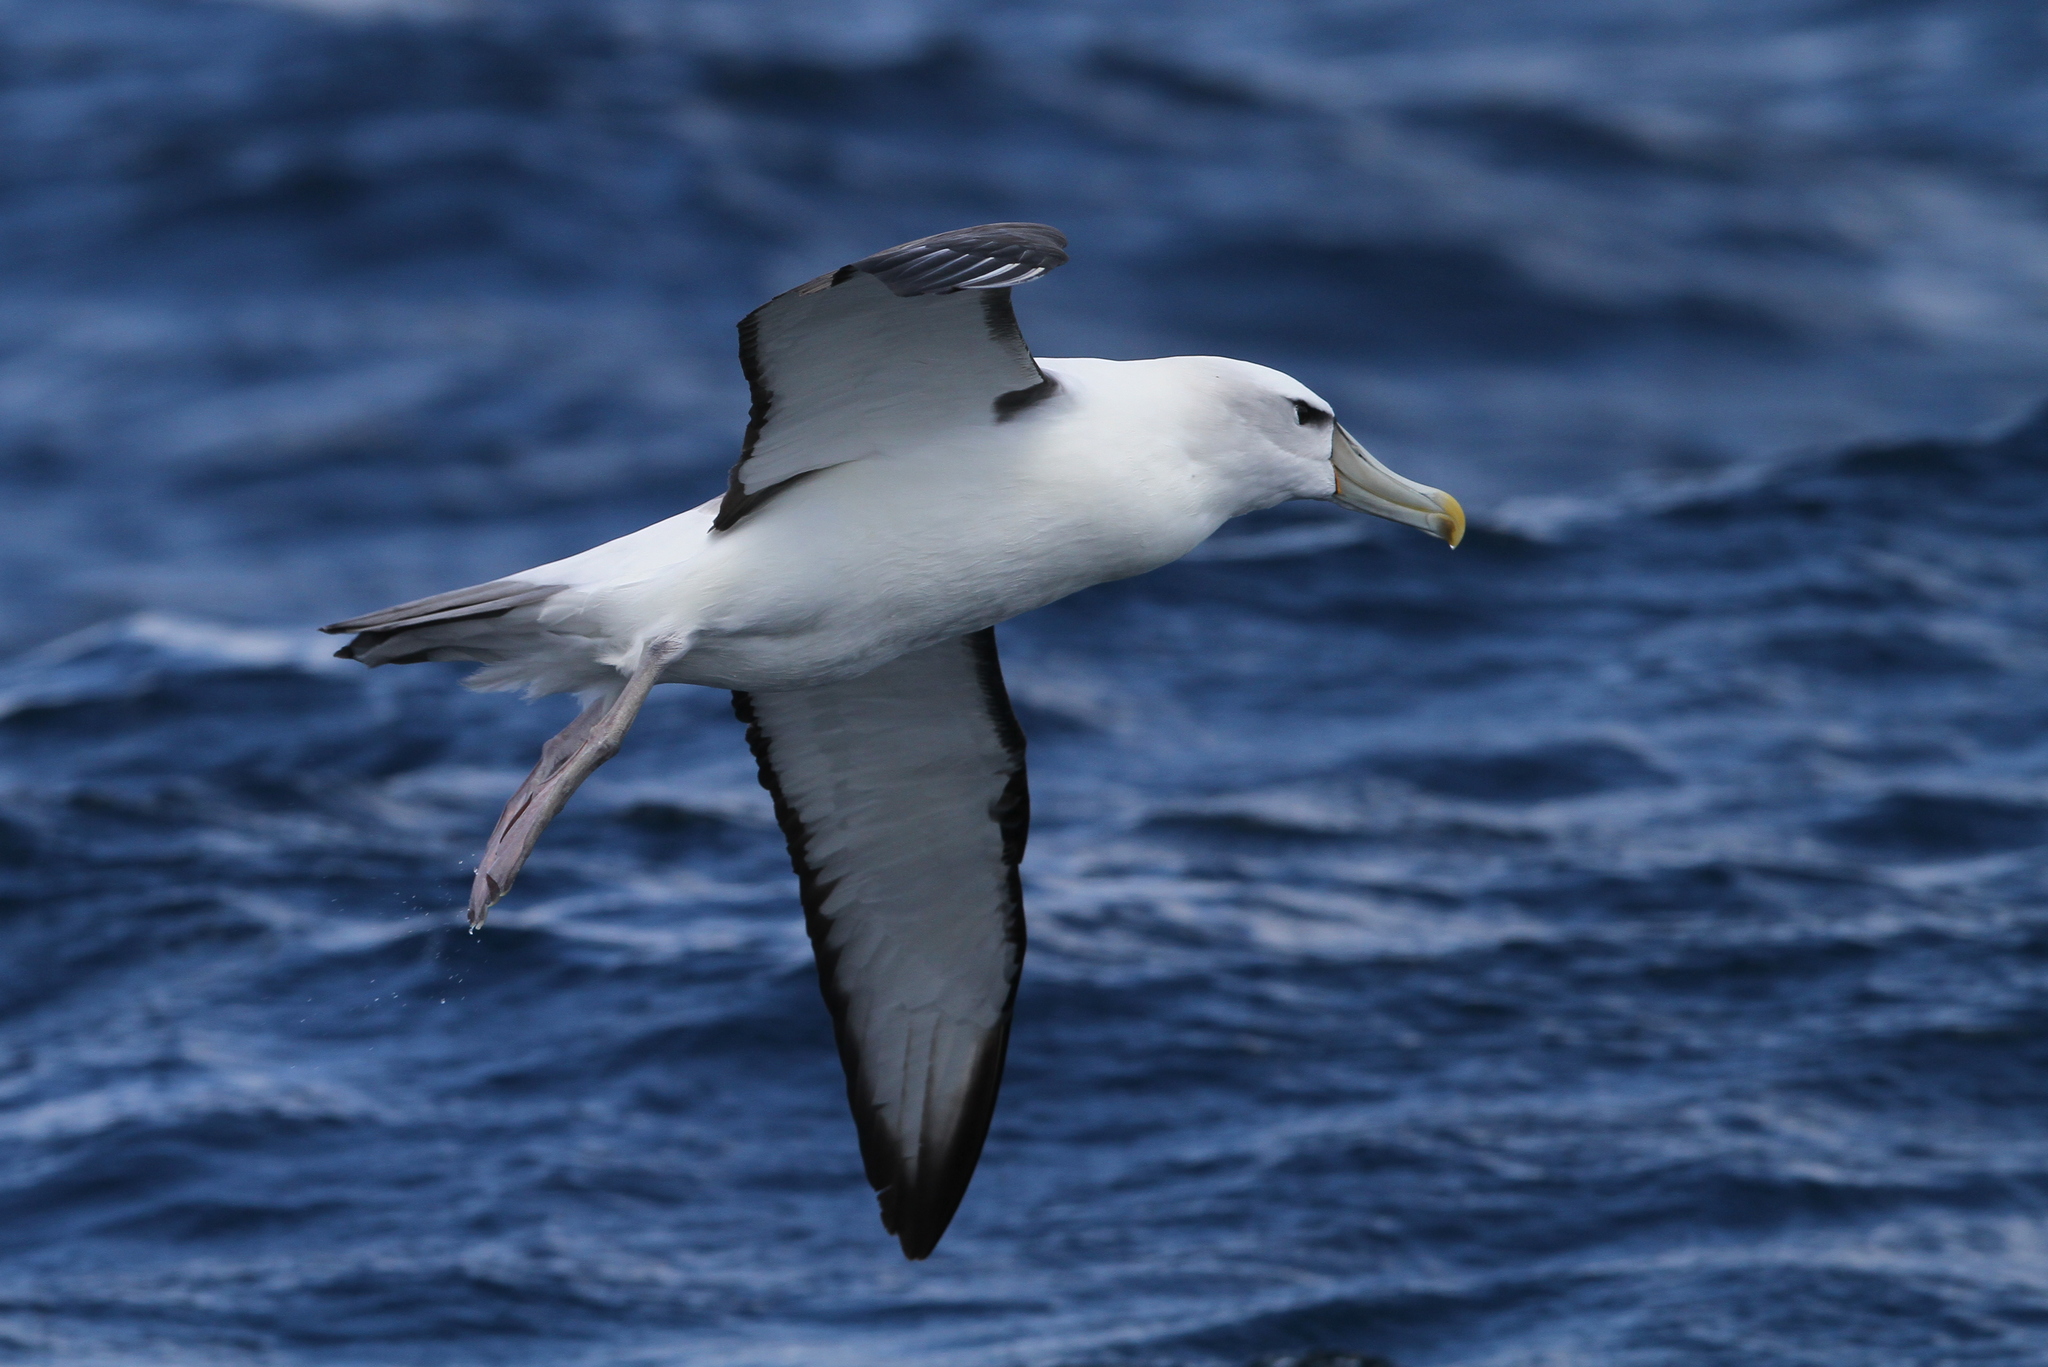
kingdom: Animalia
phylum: Chordata
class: Aves
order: Procellariiformes
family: Diomedeidae
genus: Thalassarche
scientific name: Thalassarche cauta
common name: Shy albatross
